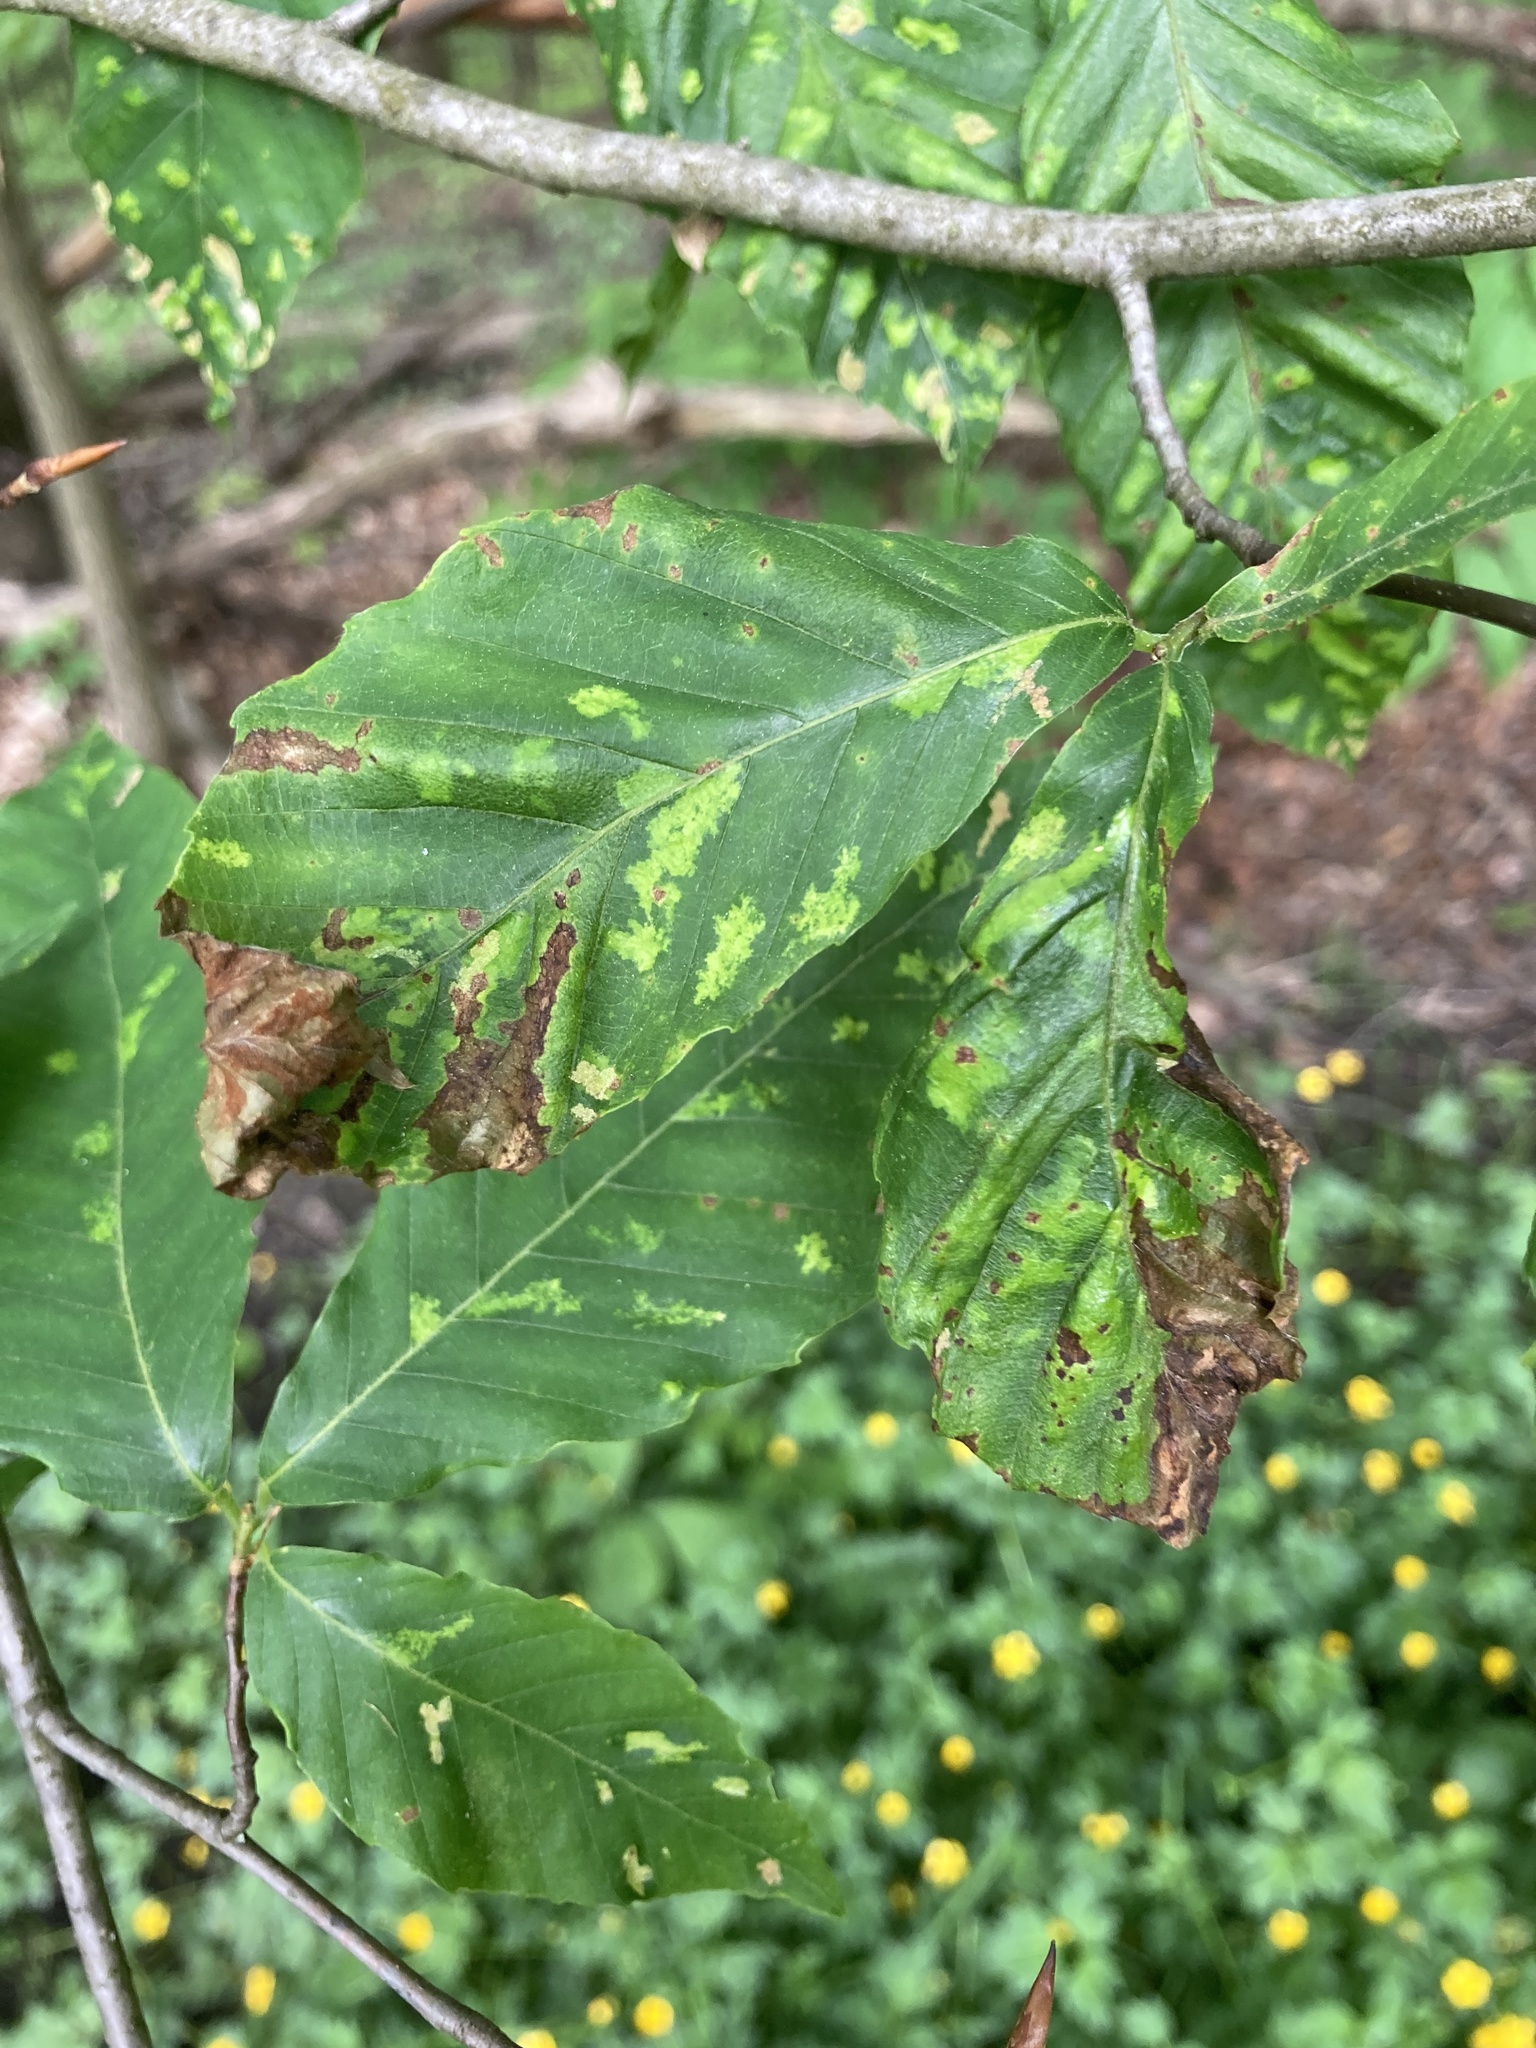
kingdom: Plantae
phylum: Tracheophyta
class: Magnoliopsida
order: Fagales
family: Fagaceae
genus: Fagus
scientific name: Fagus grandifolia
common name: American beech
